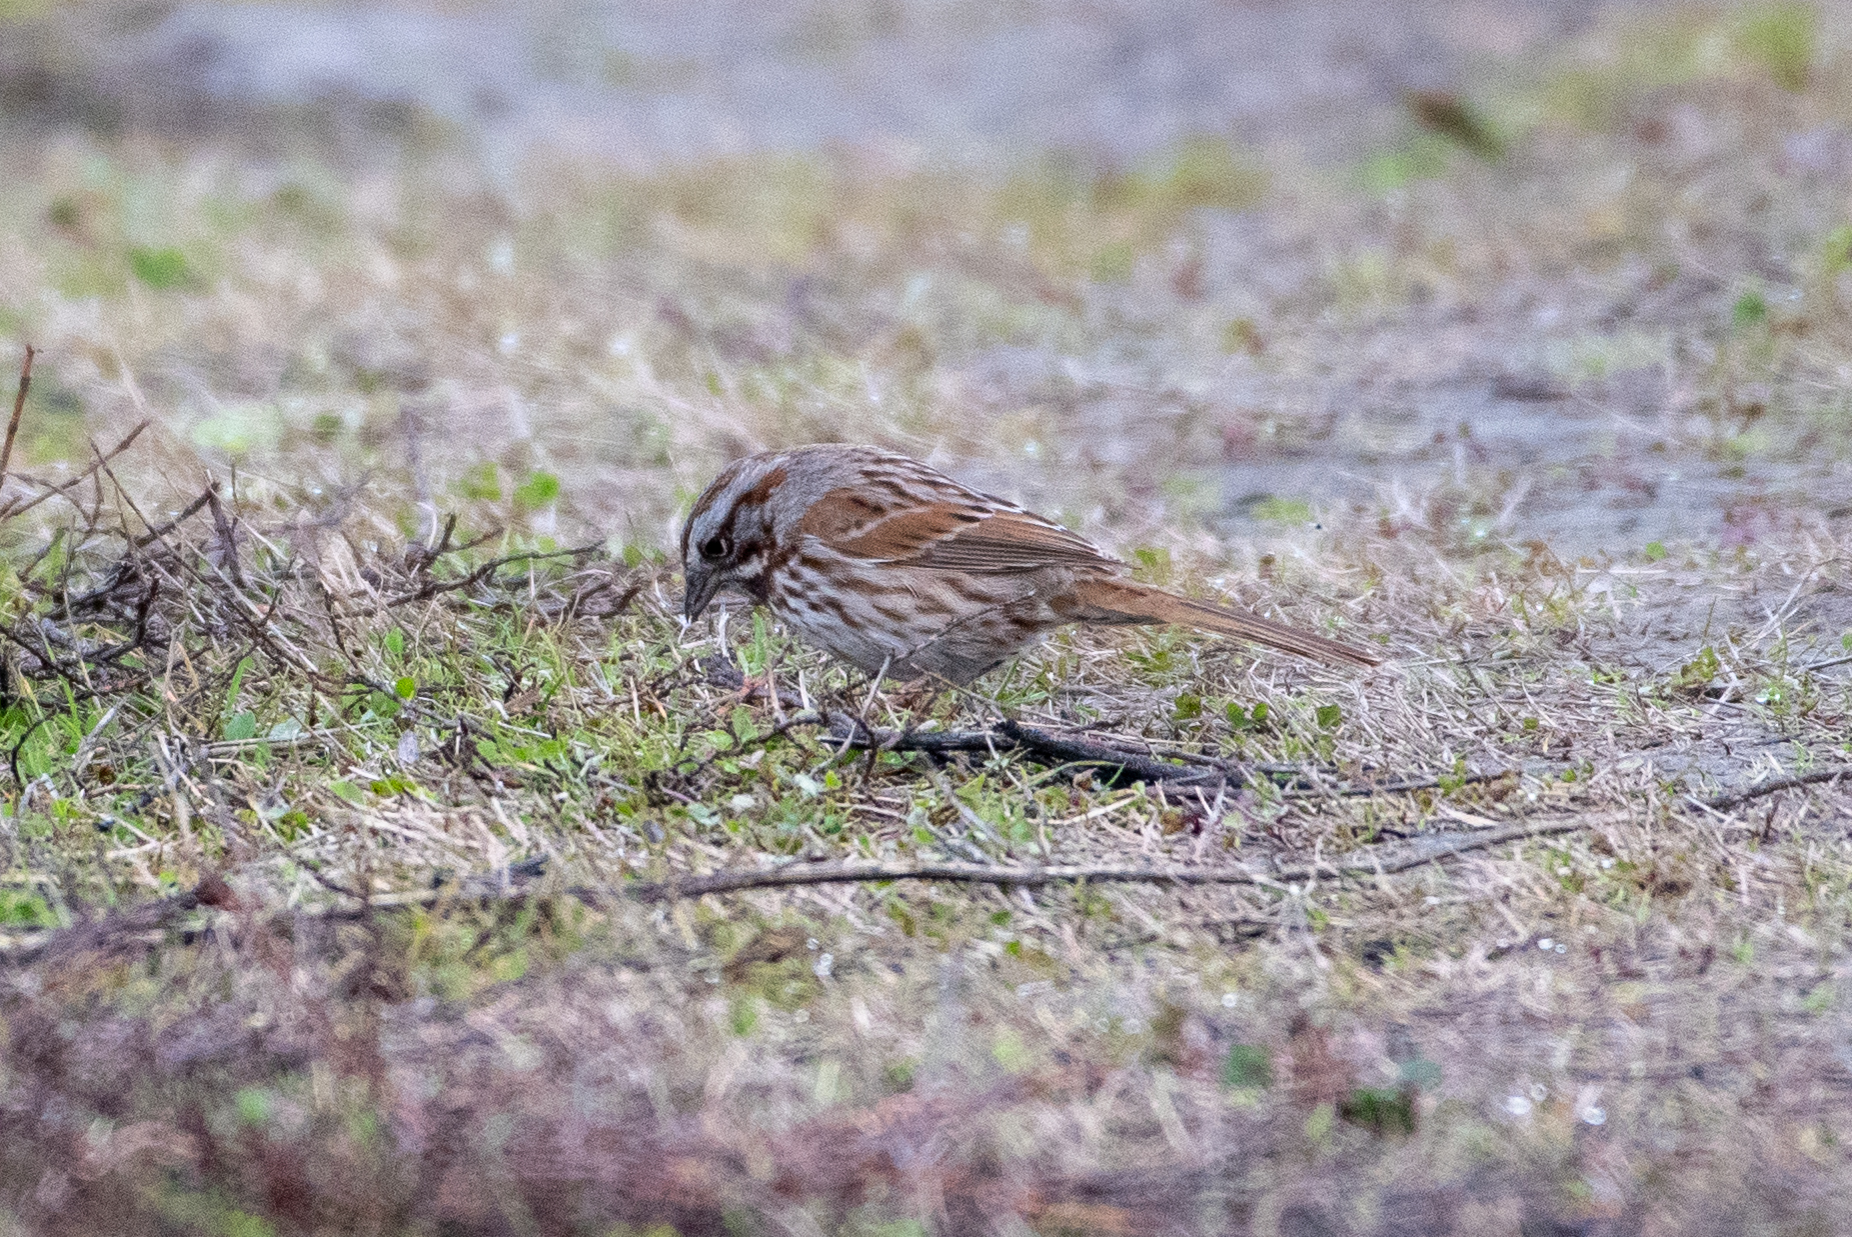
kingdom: Animalia
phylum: Chordata
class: Aves
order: Passeriformes
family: Passerellidae
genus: Melospiza
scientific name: Melospiza melodia
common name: Song sparrow
